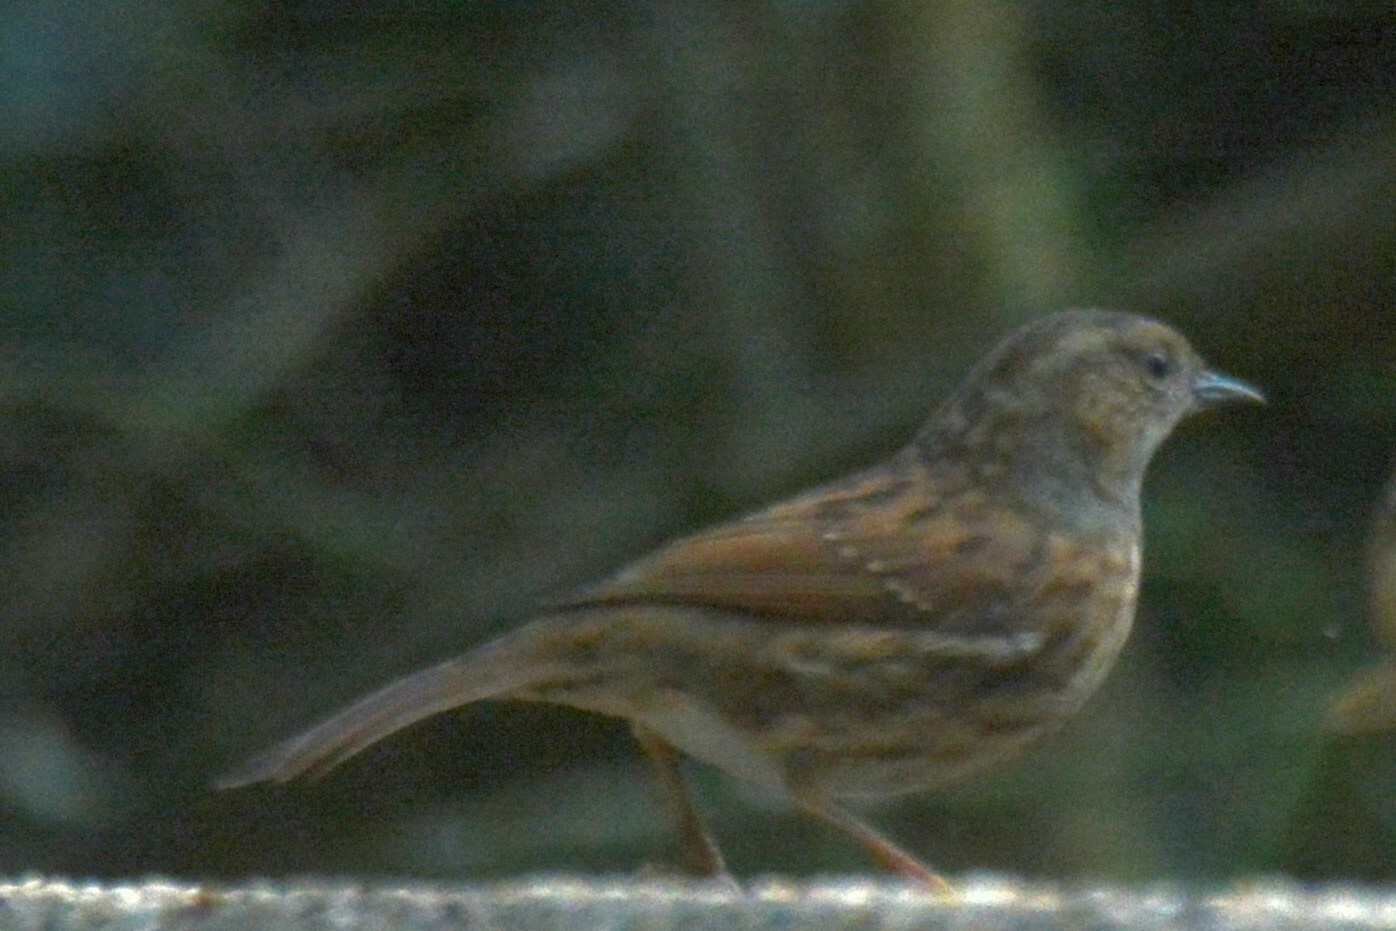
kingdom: Animalia
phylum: Chordata
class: Aves
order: Passeriformes
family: Prunellidae
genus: Prunella
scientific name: Prunella modularis
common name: Dunnock
